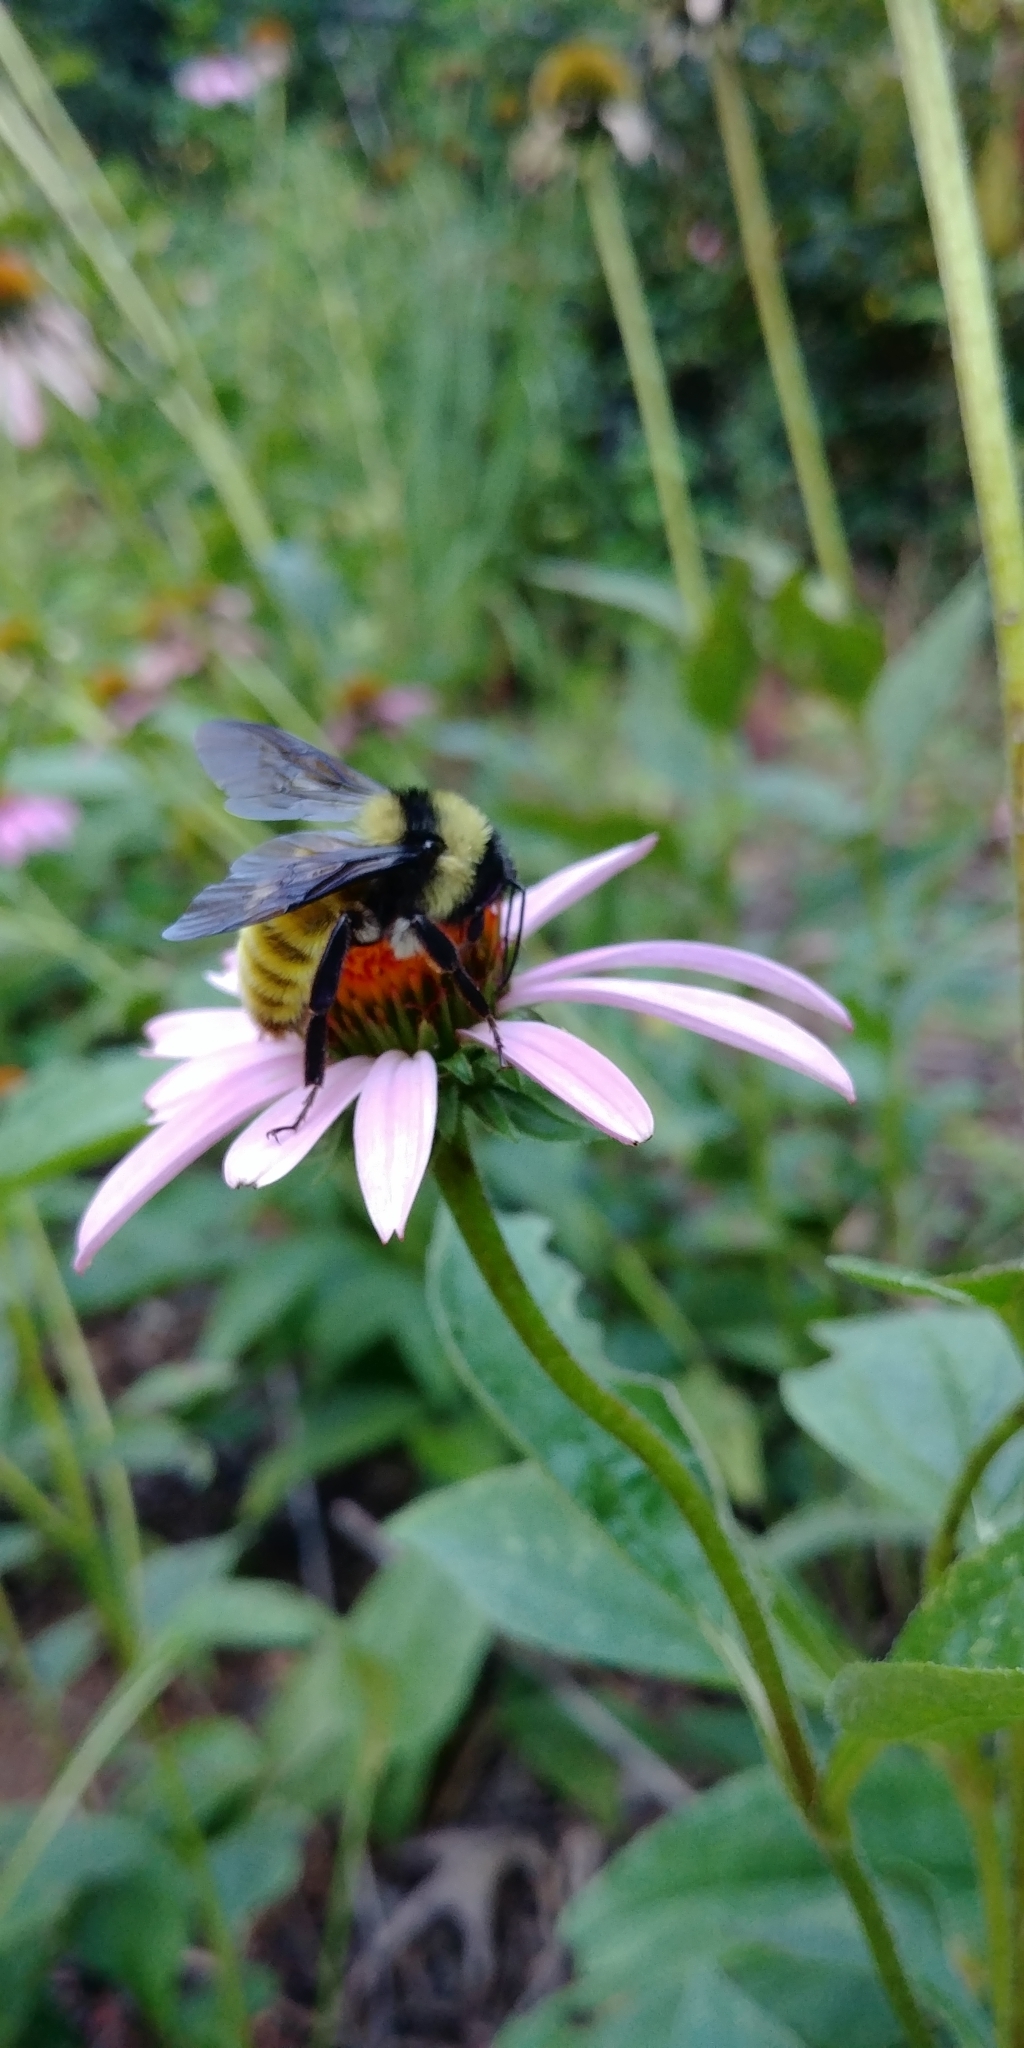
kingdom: Animalia
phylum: Arthropoda
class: Insecta
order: Hymenoptera
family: Apidae
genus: Bombus
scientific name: Bombus pensylvanicus
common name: Bumble bee
